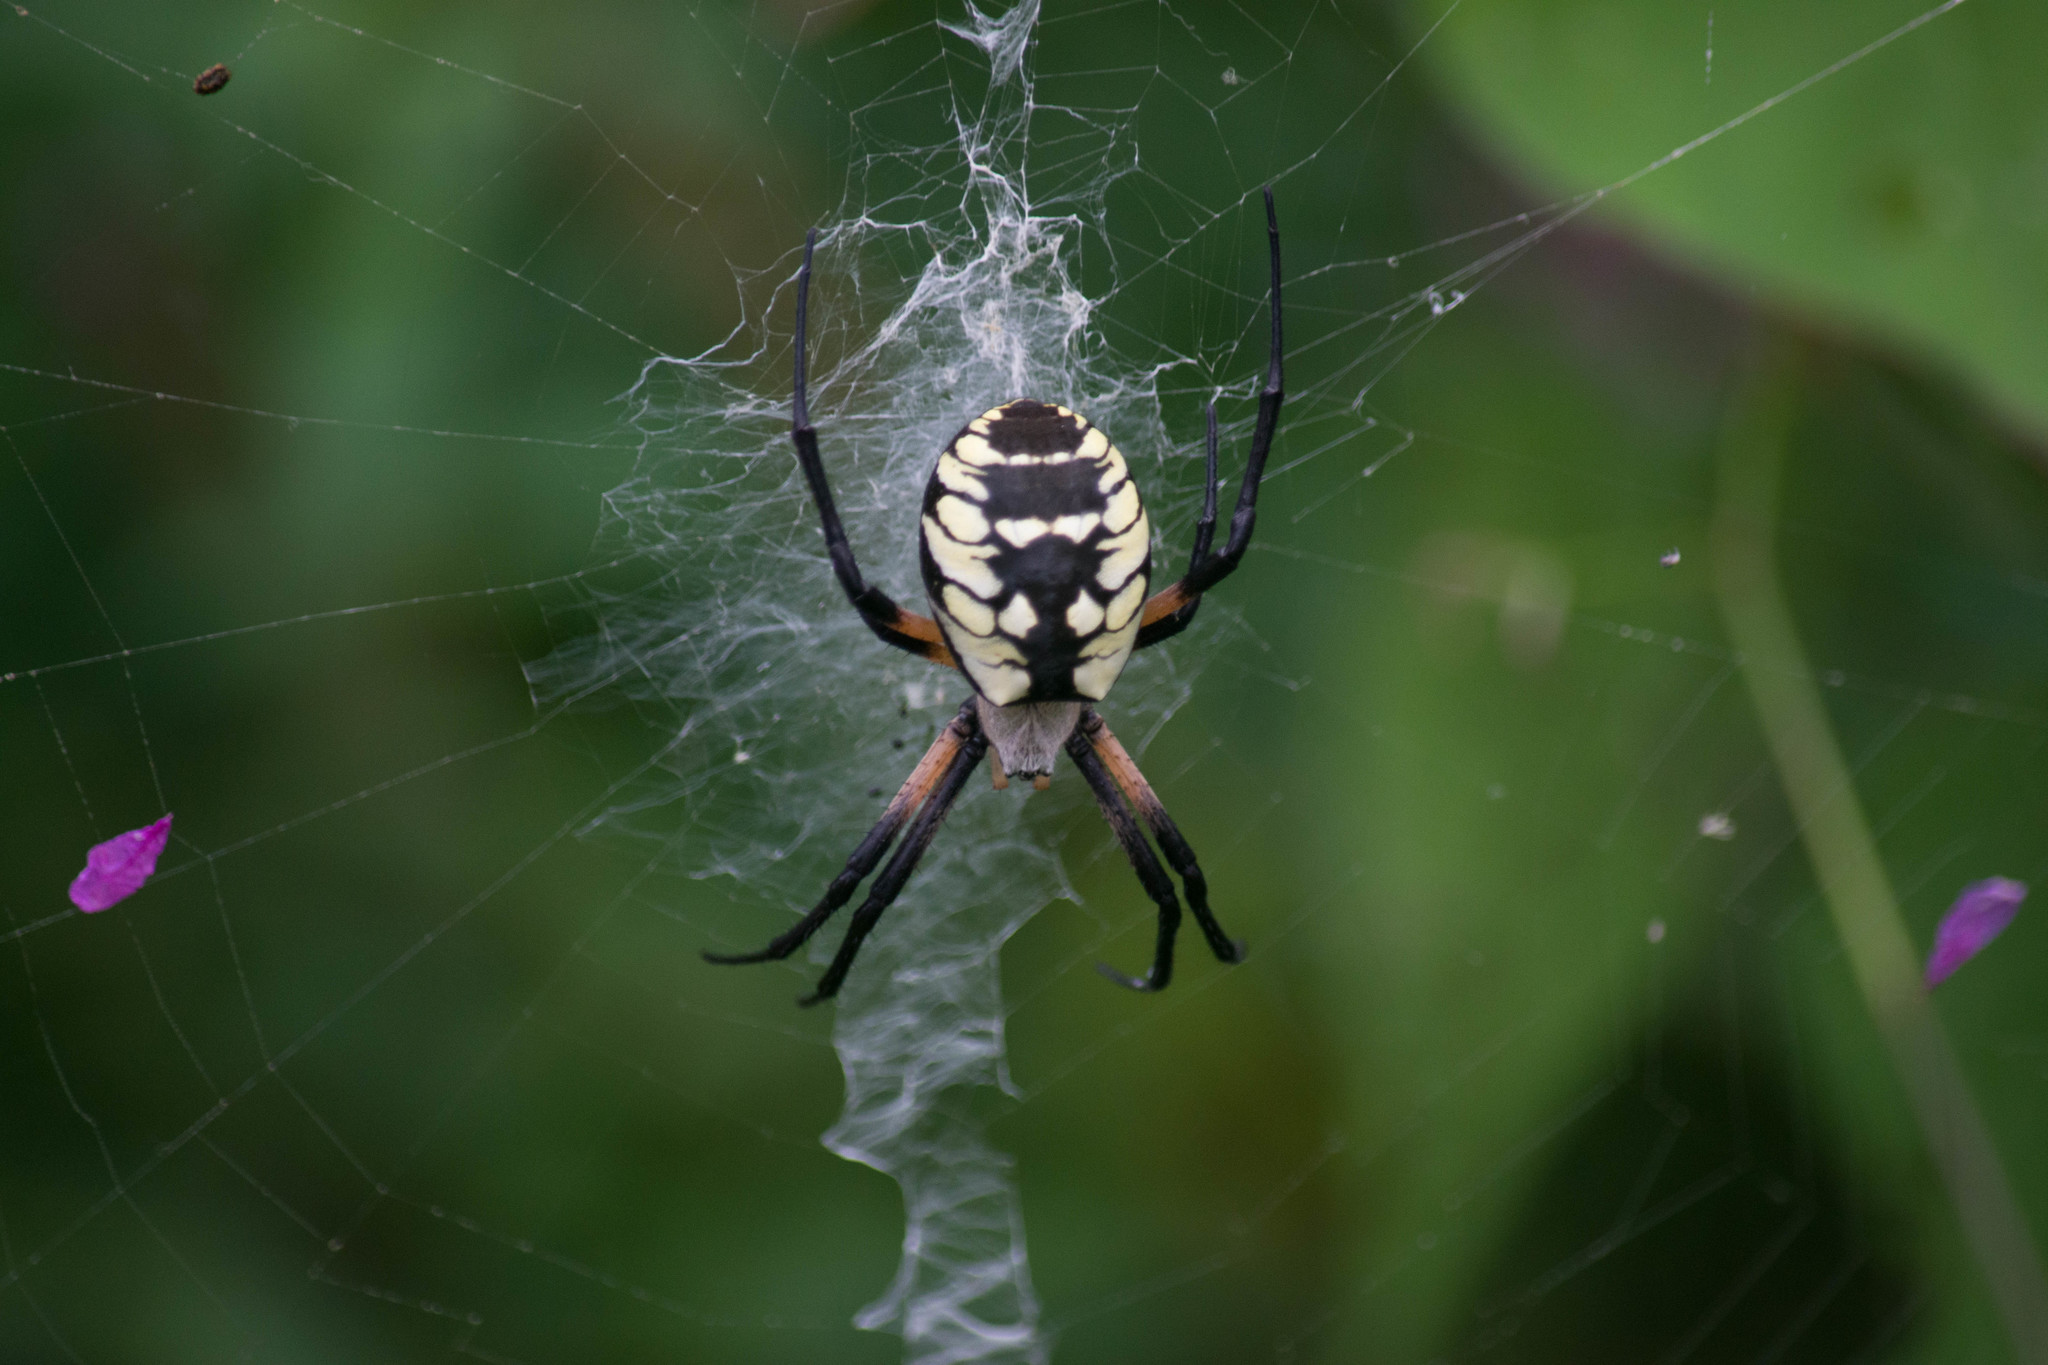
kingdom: Animalia
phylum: Arthropoda
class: Arachnida
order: Araneae
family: Araneidae
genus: Argiope
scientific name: Argiope aurantia
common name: Orb weavers
